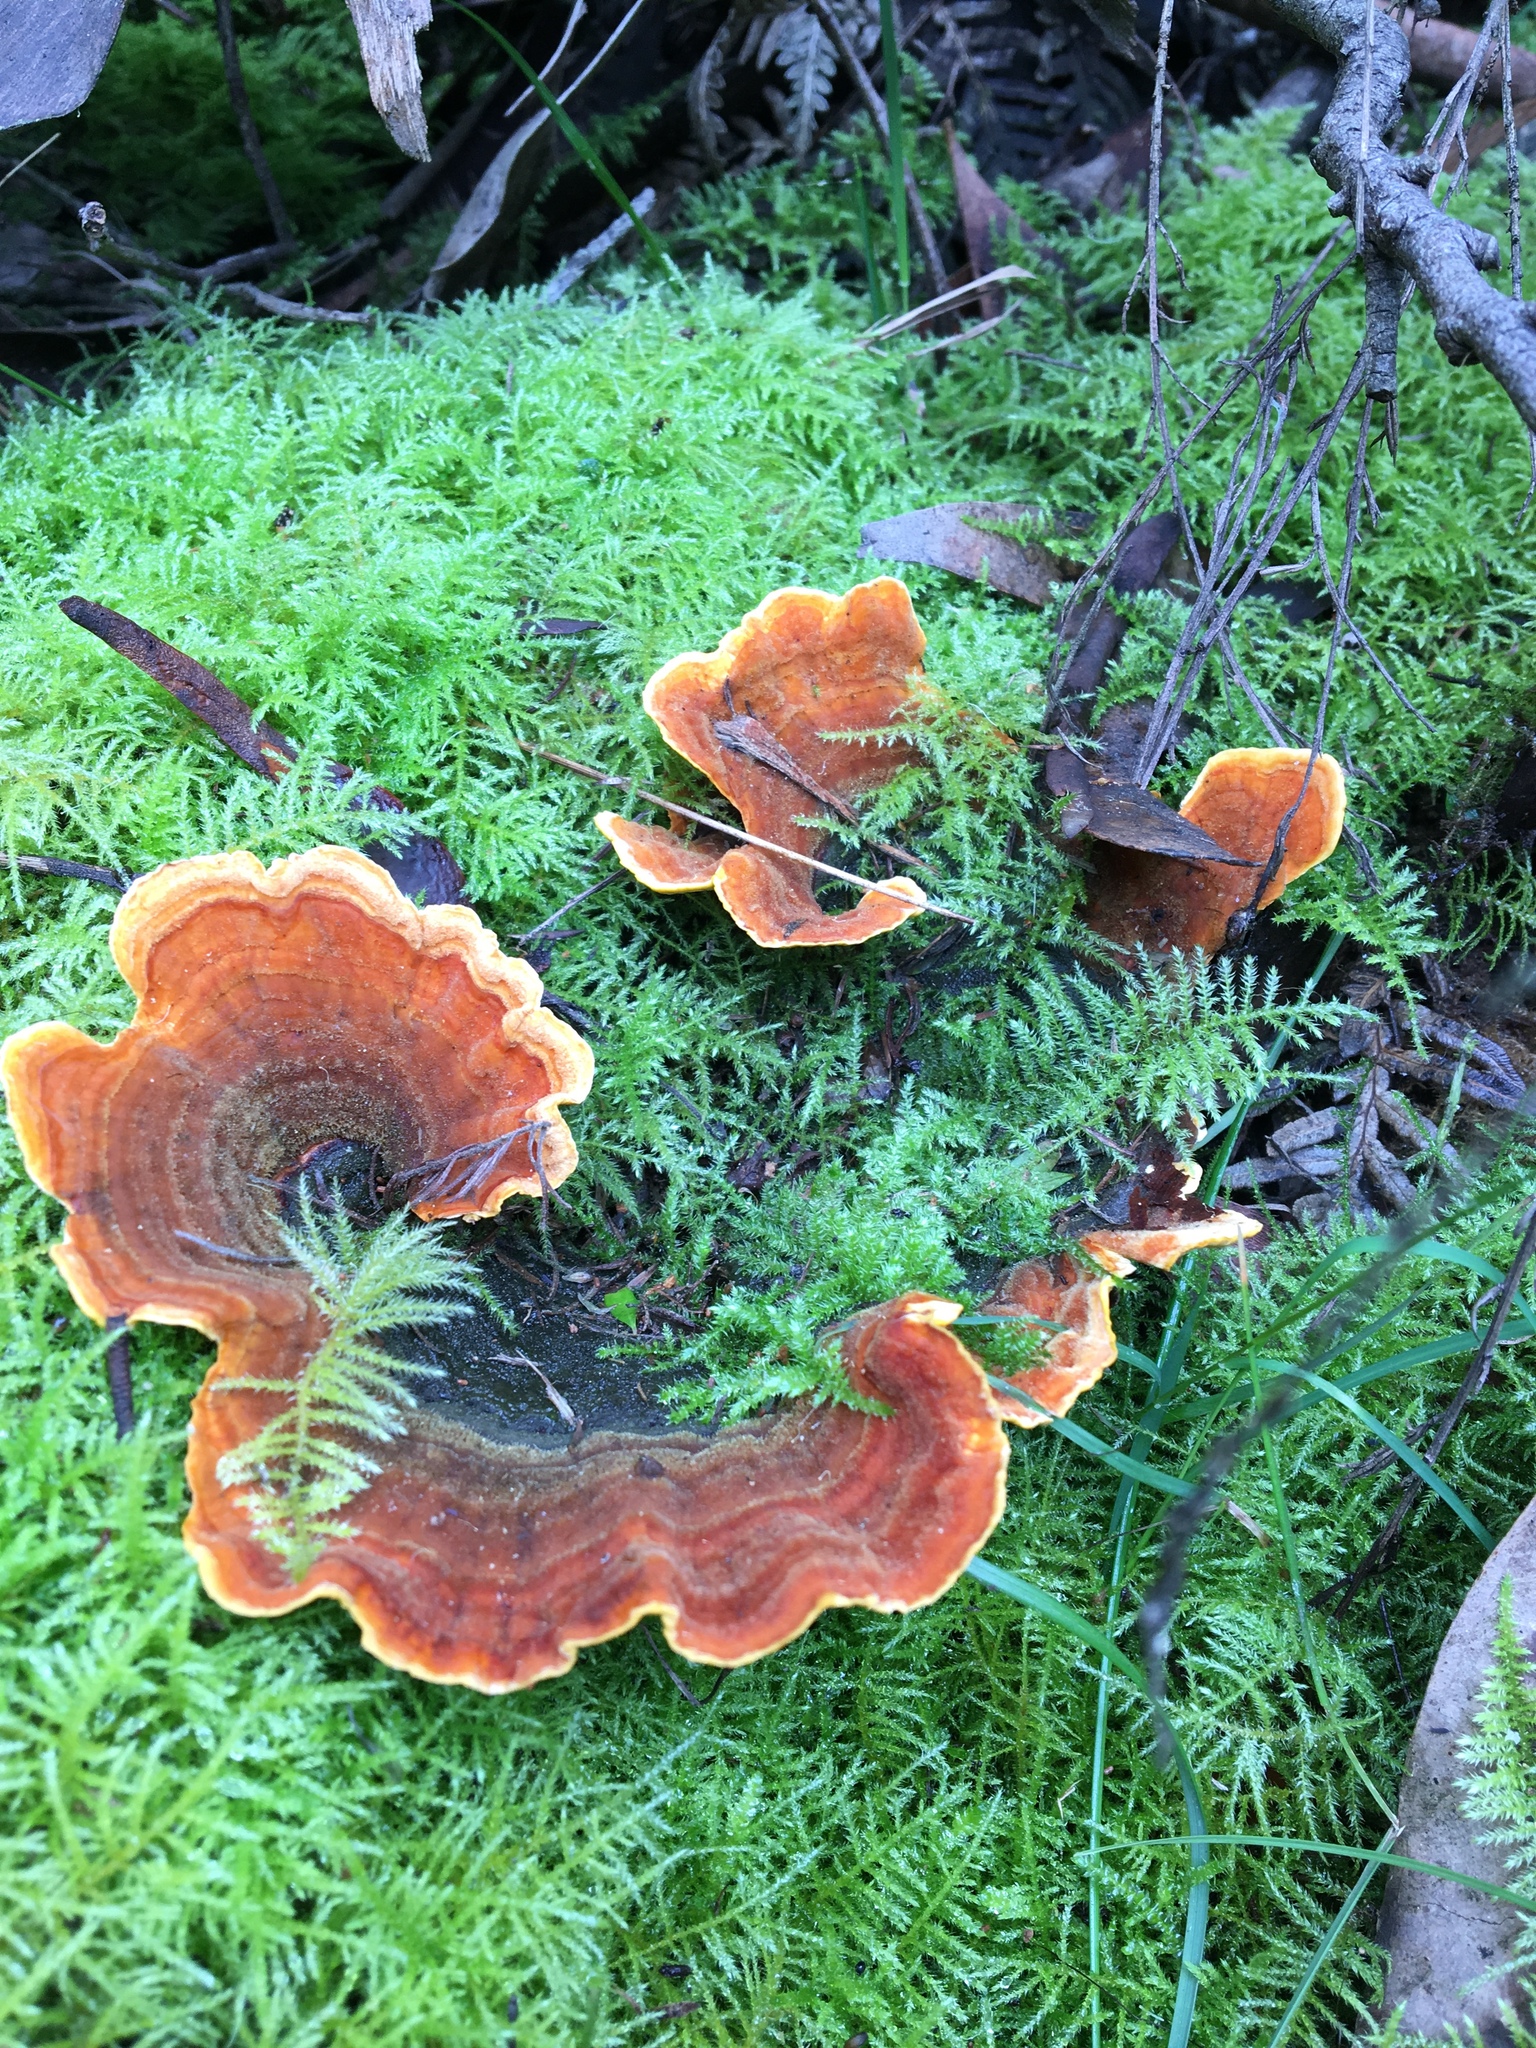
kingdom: Fungi
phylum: Basidiomycota
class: Agaricomycetes
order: Russulales
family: Stereaceae
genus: Stereum
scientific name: Stereum versicolor
